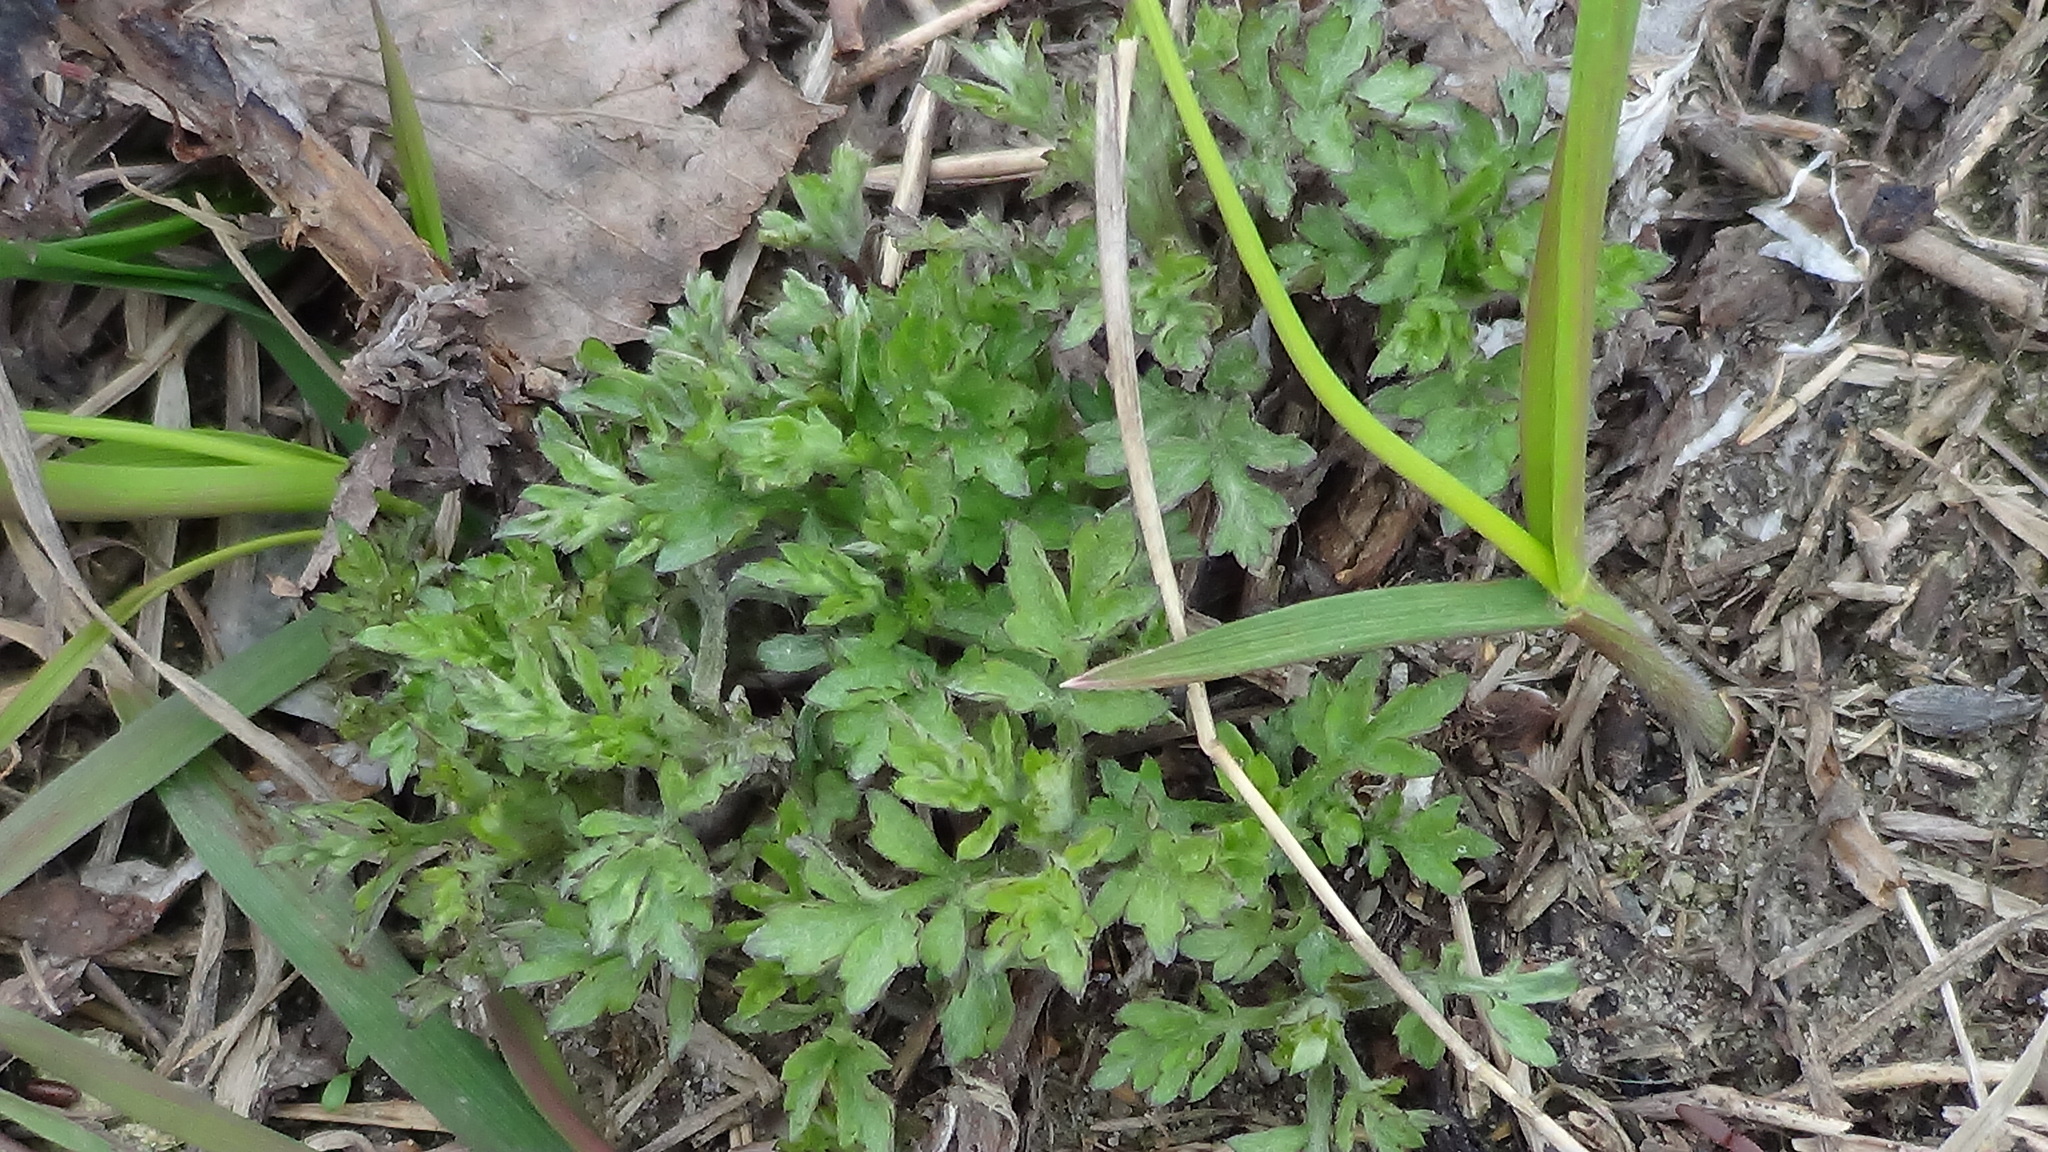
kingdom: Plantae
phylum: Tracheophyta
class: Magnoliopsida
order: Asterales
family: Asteraceae
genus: Artemisia
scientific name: Artemisia vulgaris
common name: Mugwort
